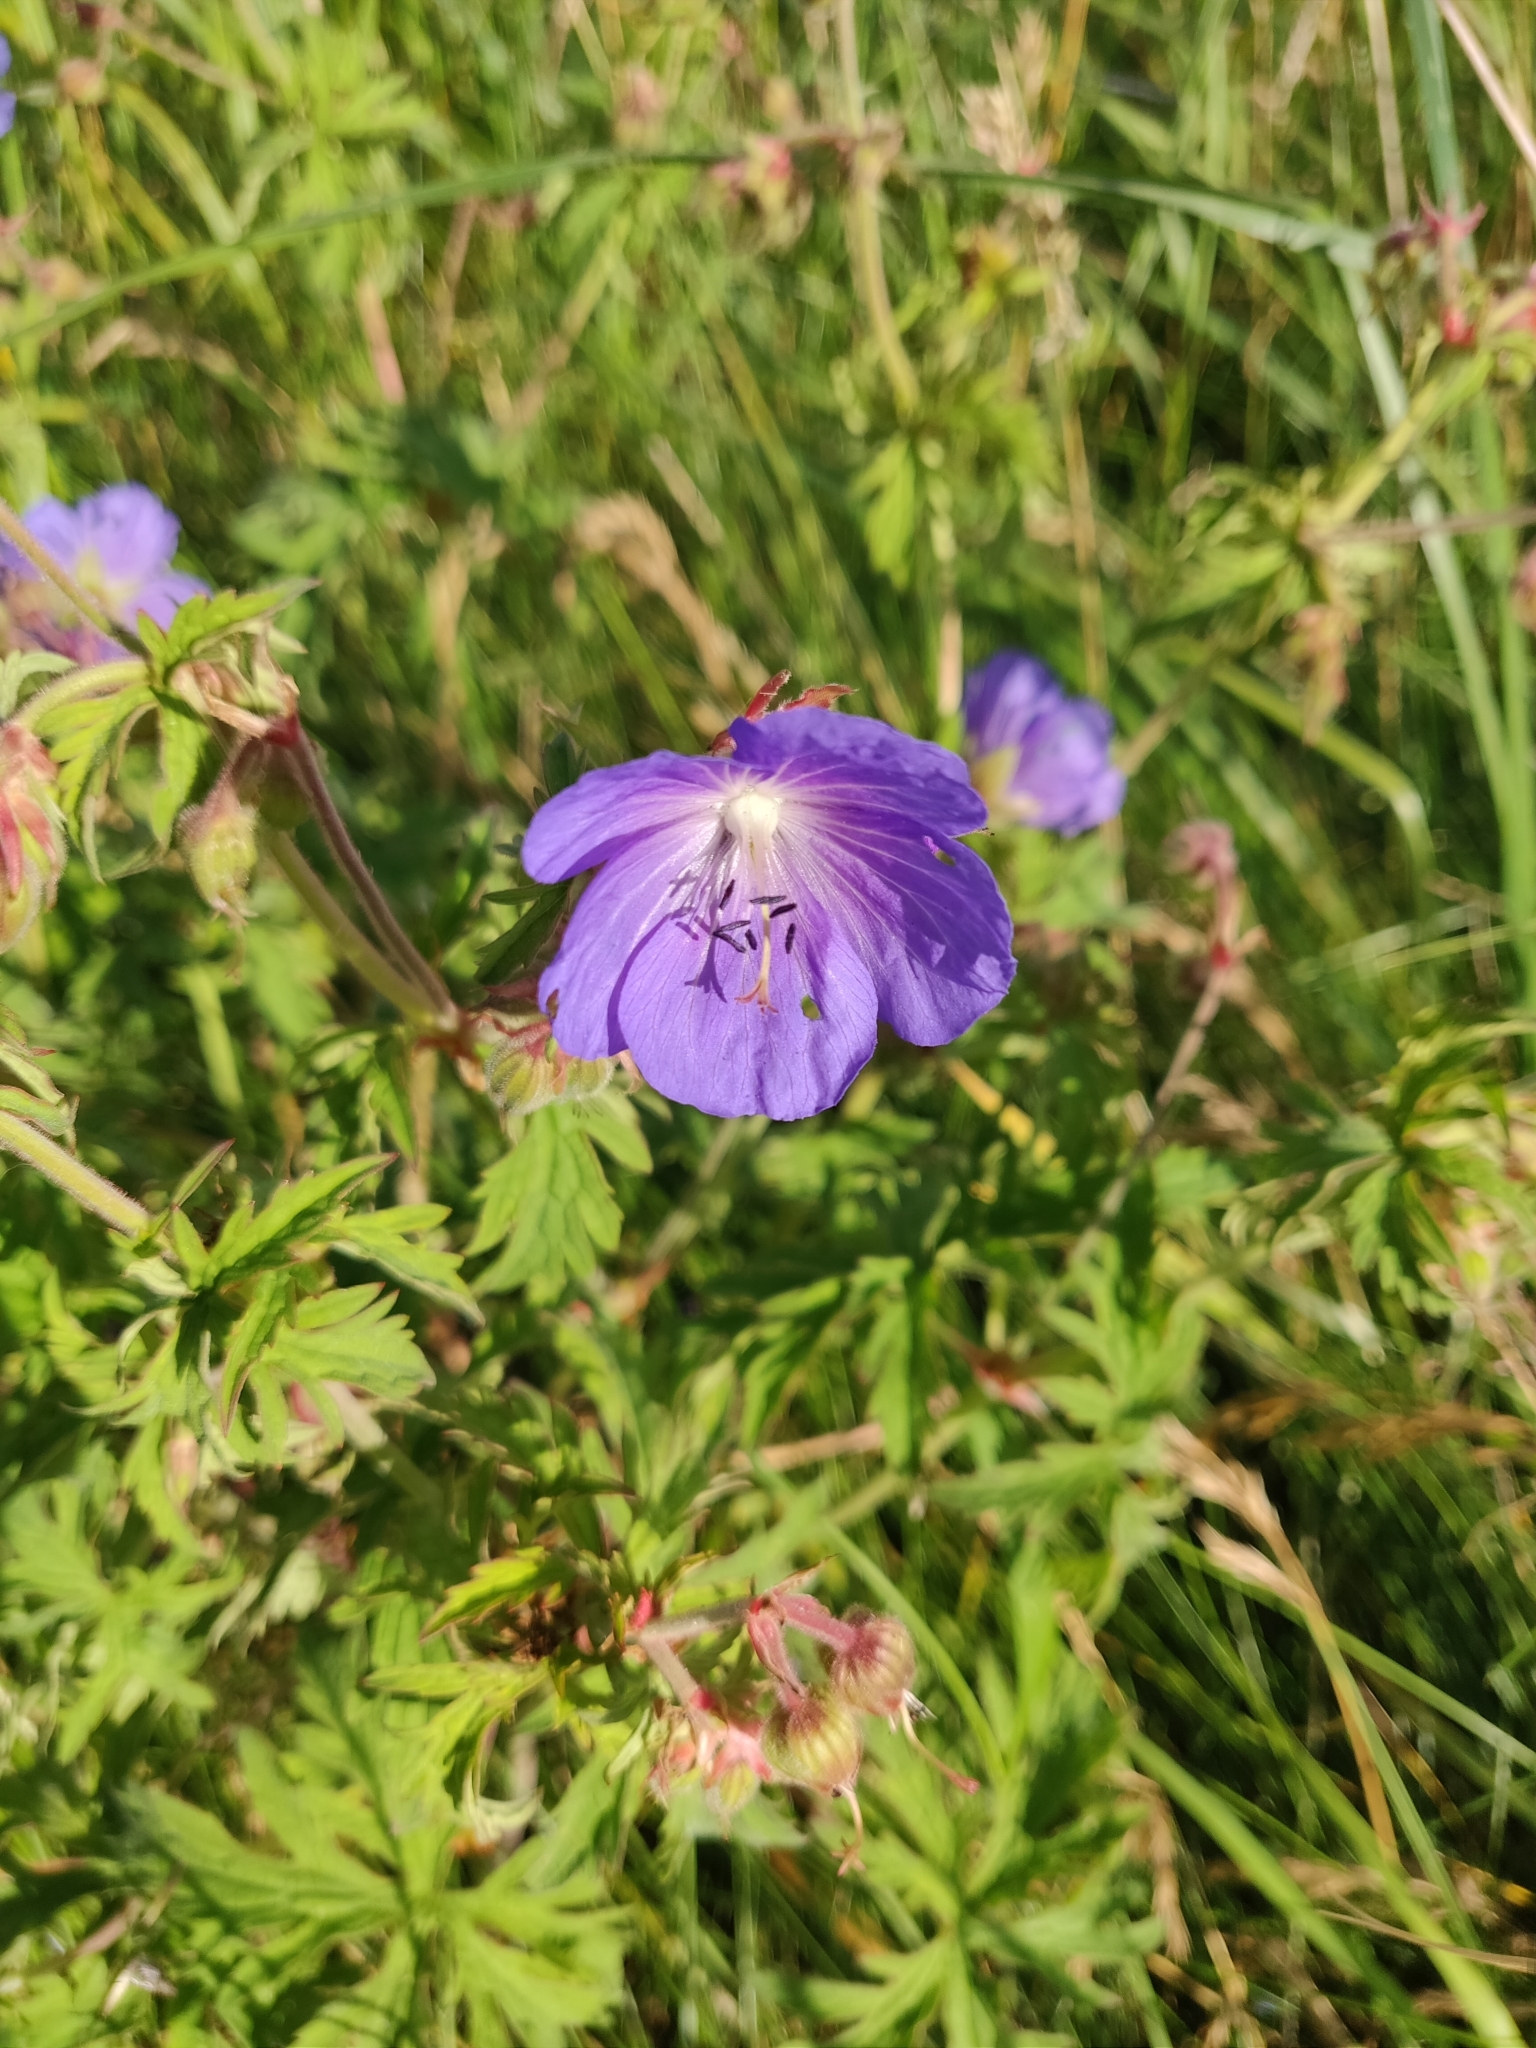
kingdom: Plantae
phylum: Tracheophyta
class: Magnoliopsida
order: Geraniales
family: Geraniaceae
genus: Geranium
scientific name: Geranium pratense
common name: Meadow crane's-bill
